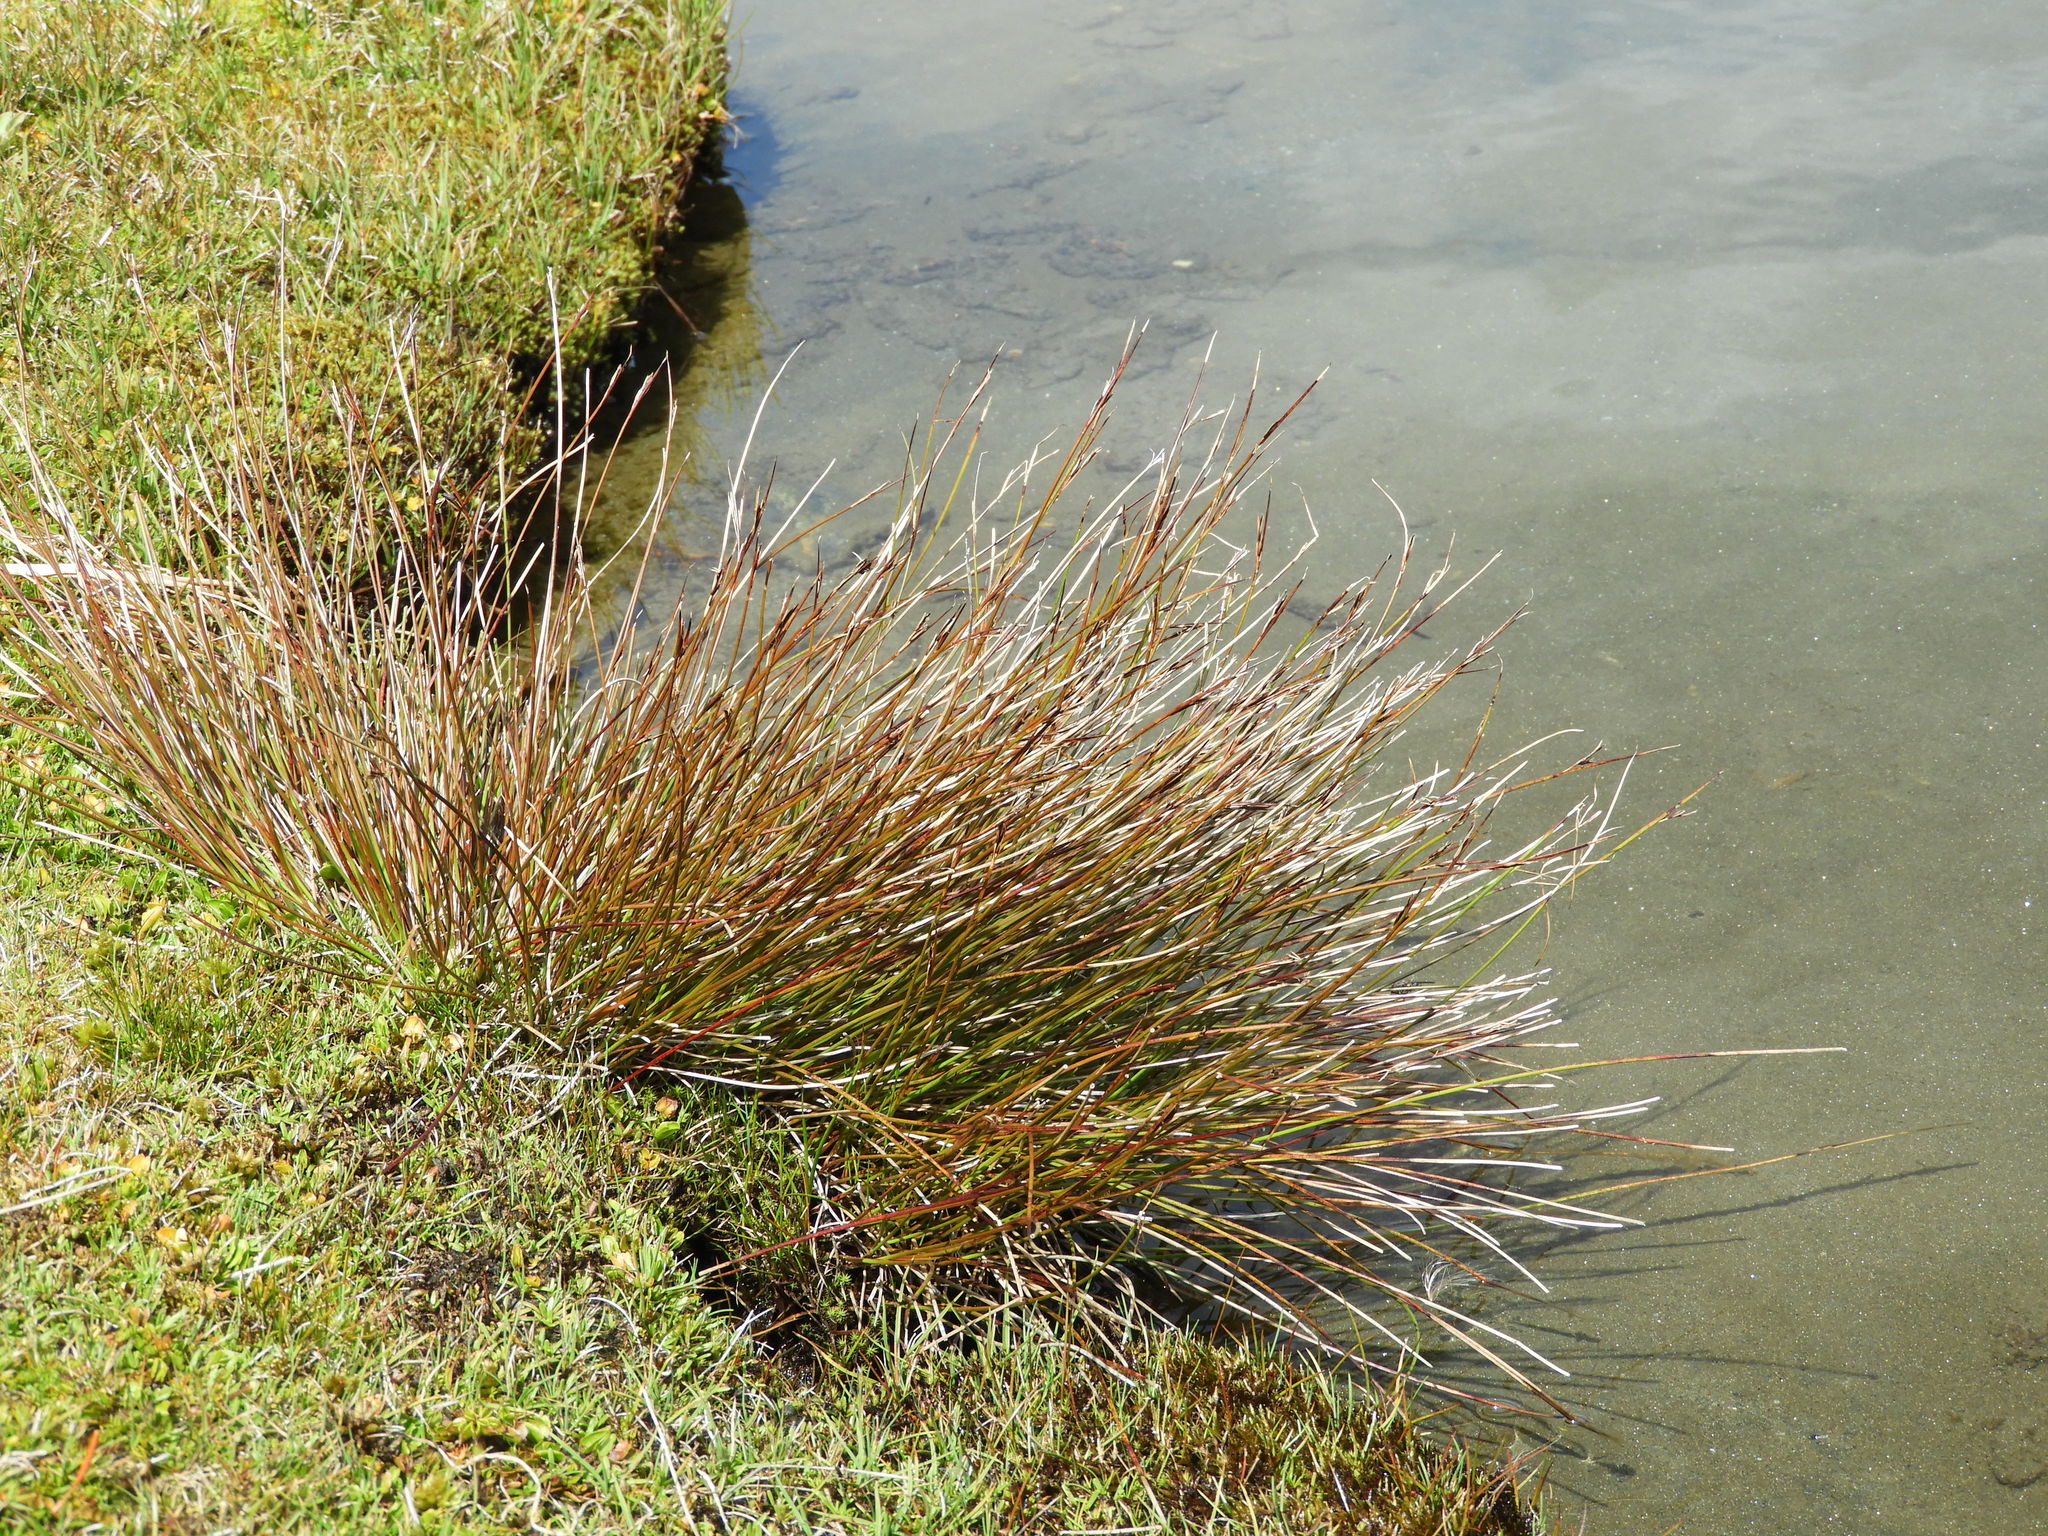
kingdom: Plantae
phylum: Tracheophyta
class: Liliopsida
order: Poales
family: Cyperaceae
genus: Schoenus
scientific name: Schoenus pauciflorus
